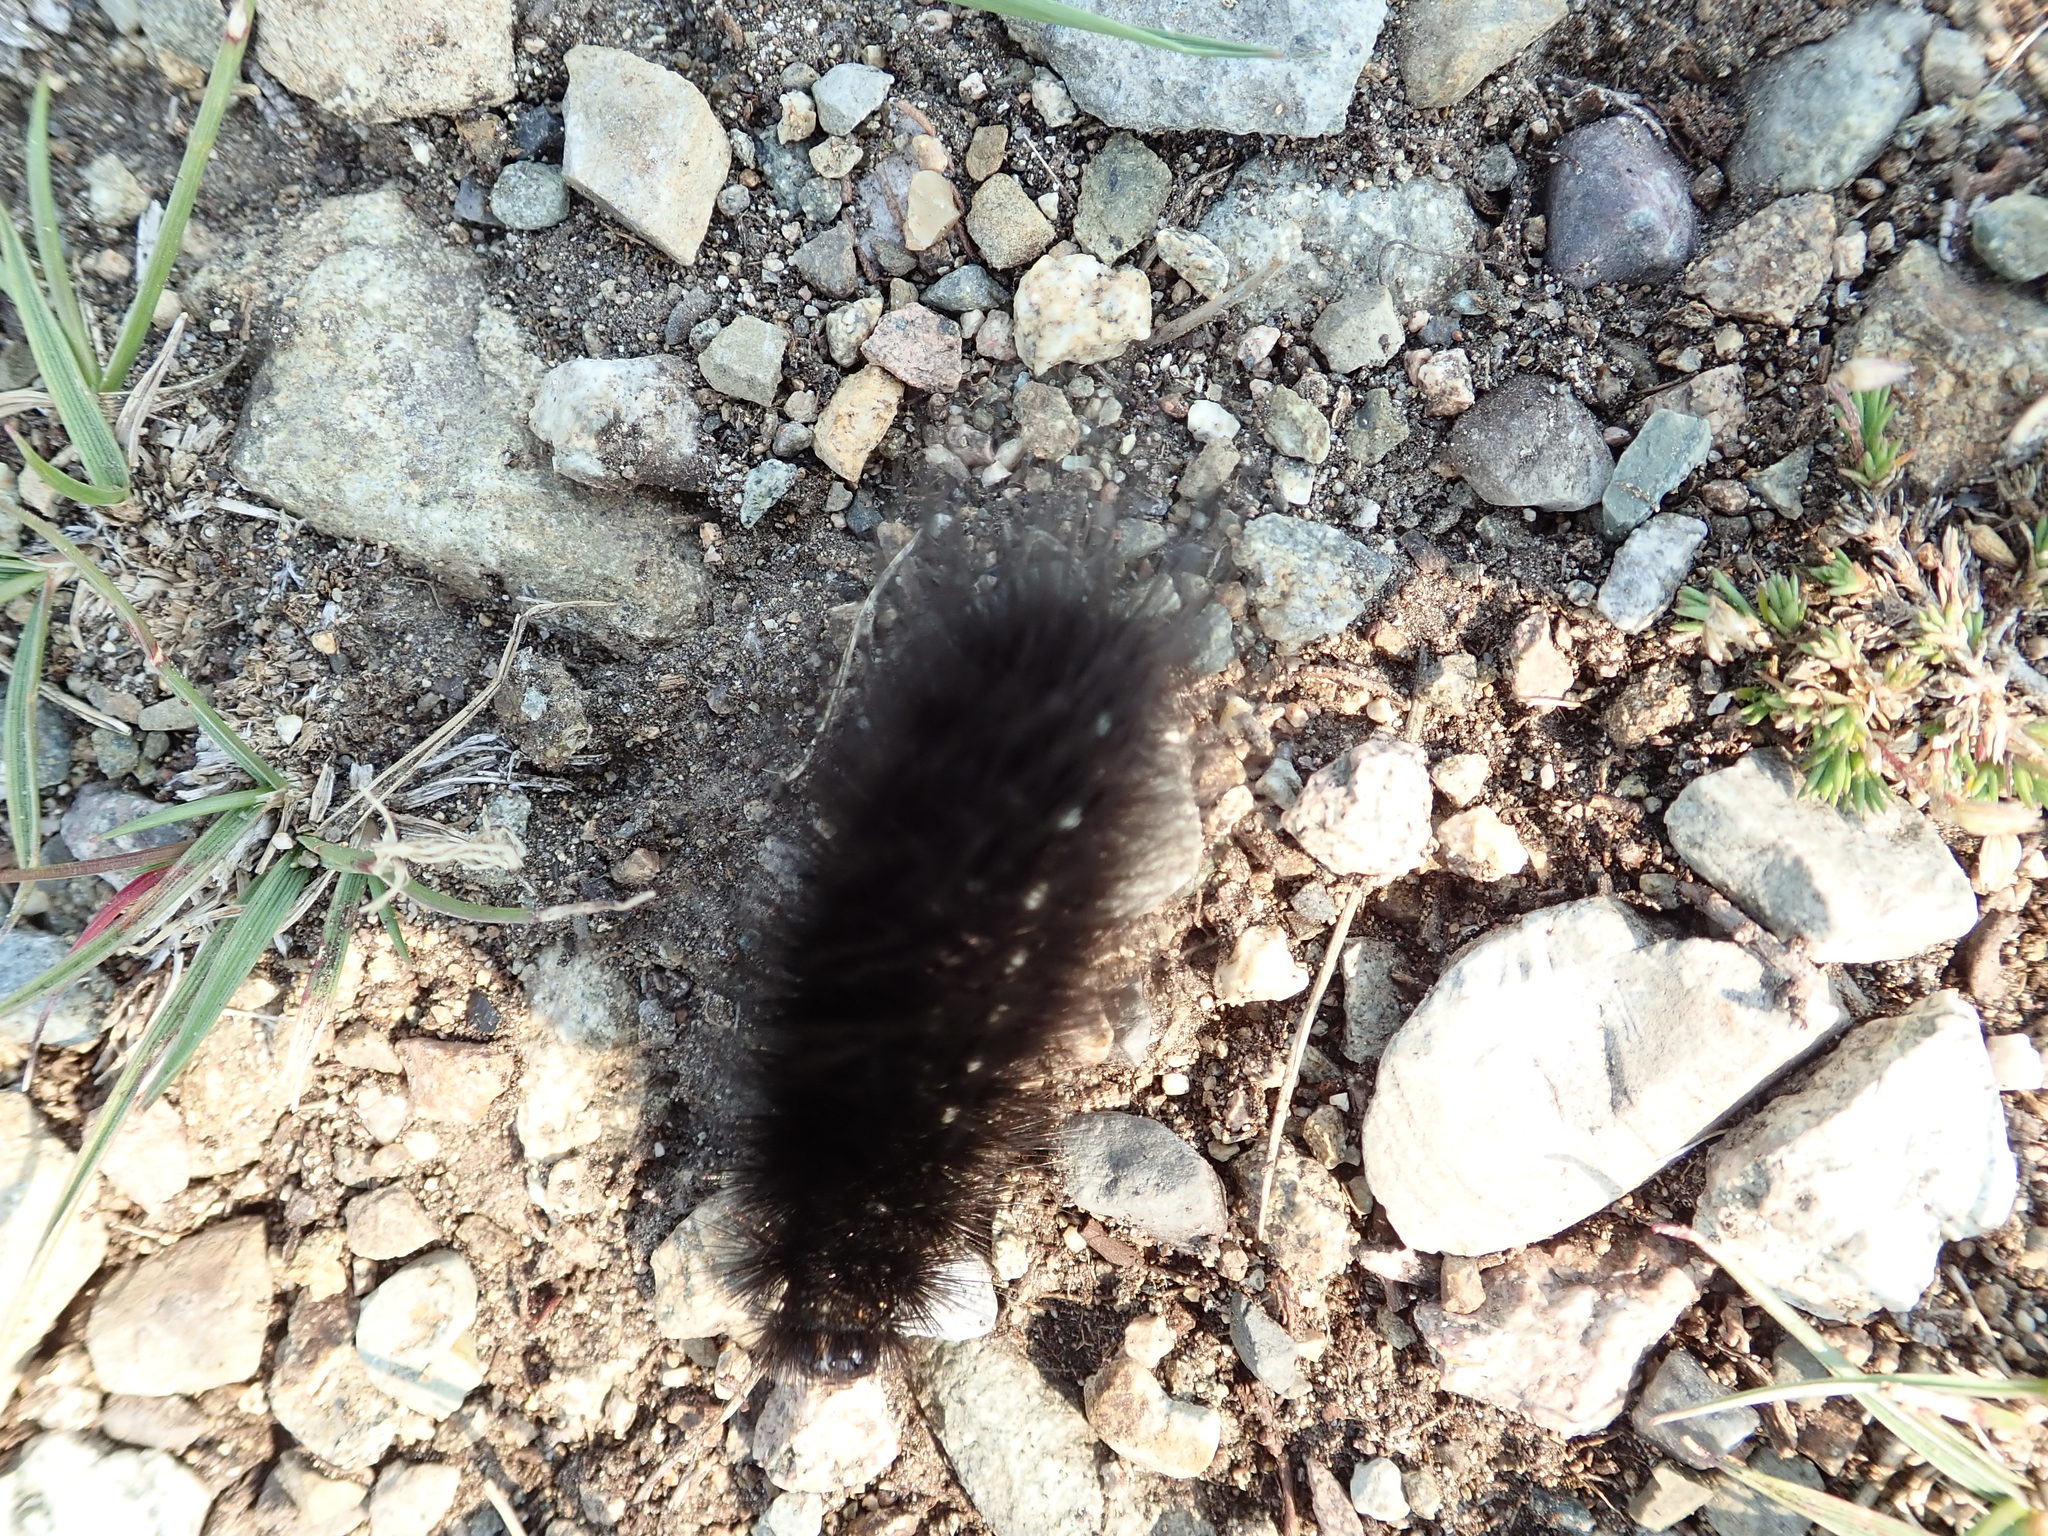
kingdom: Animalia
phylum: Arthropoda
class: Insecta
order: Lepidoptera
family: Erebidae
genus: Arctia
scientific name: Arctia parthenos
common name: St. lawrence tiger moth
